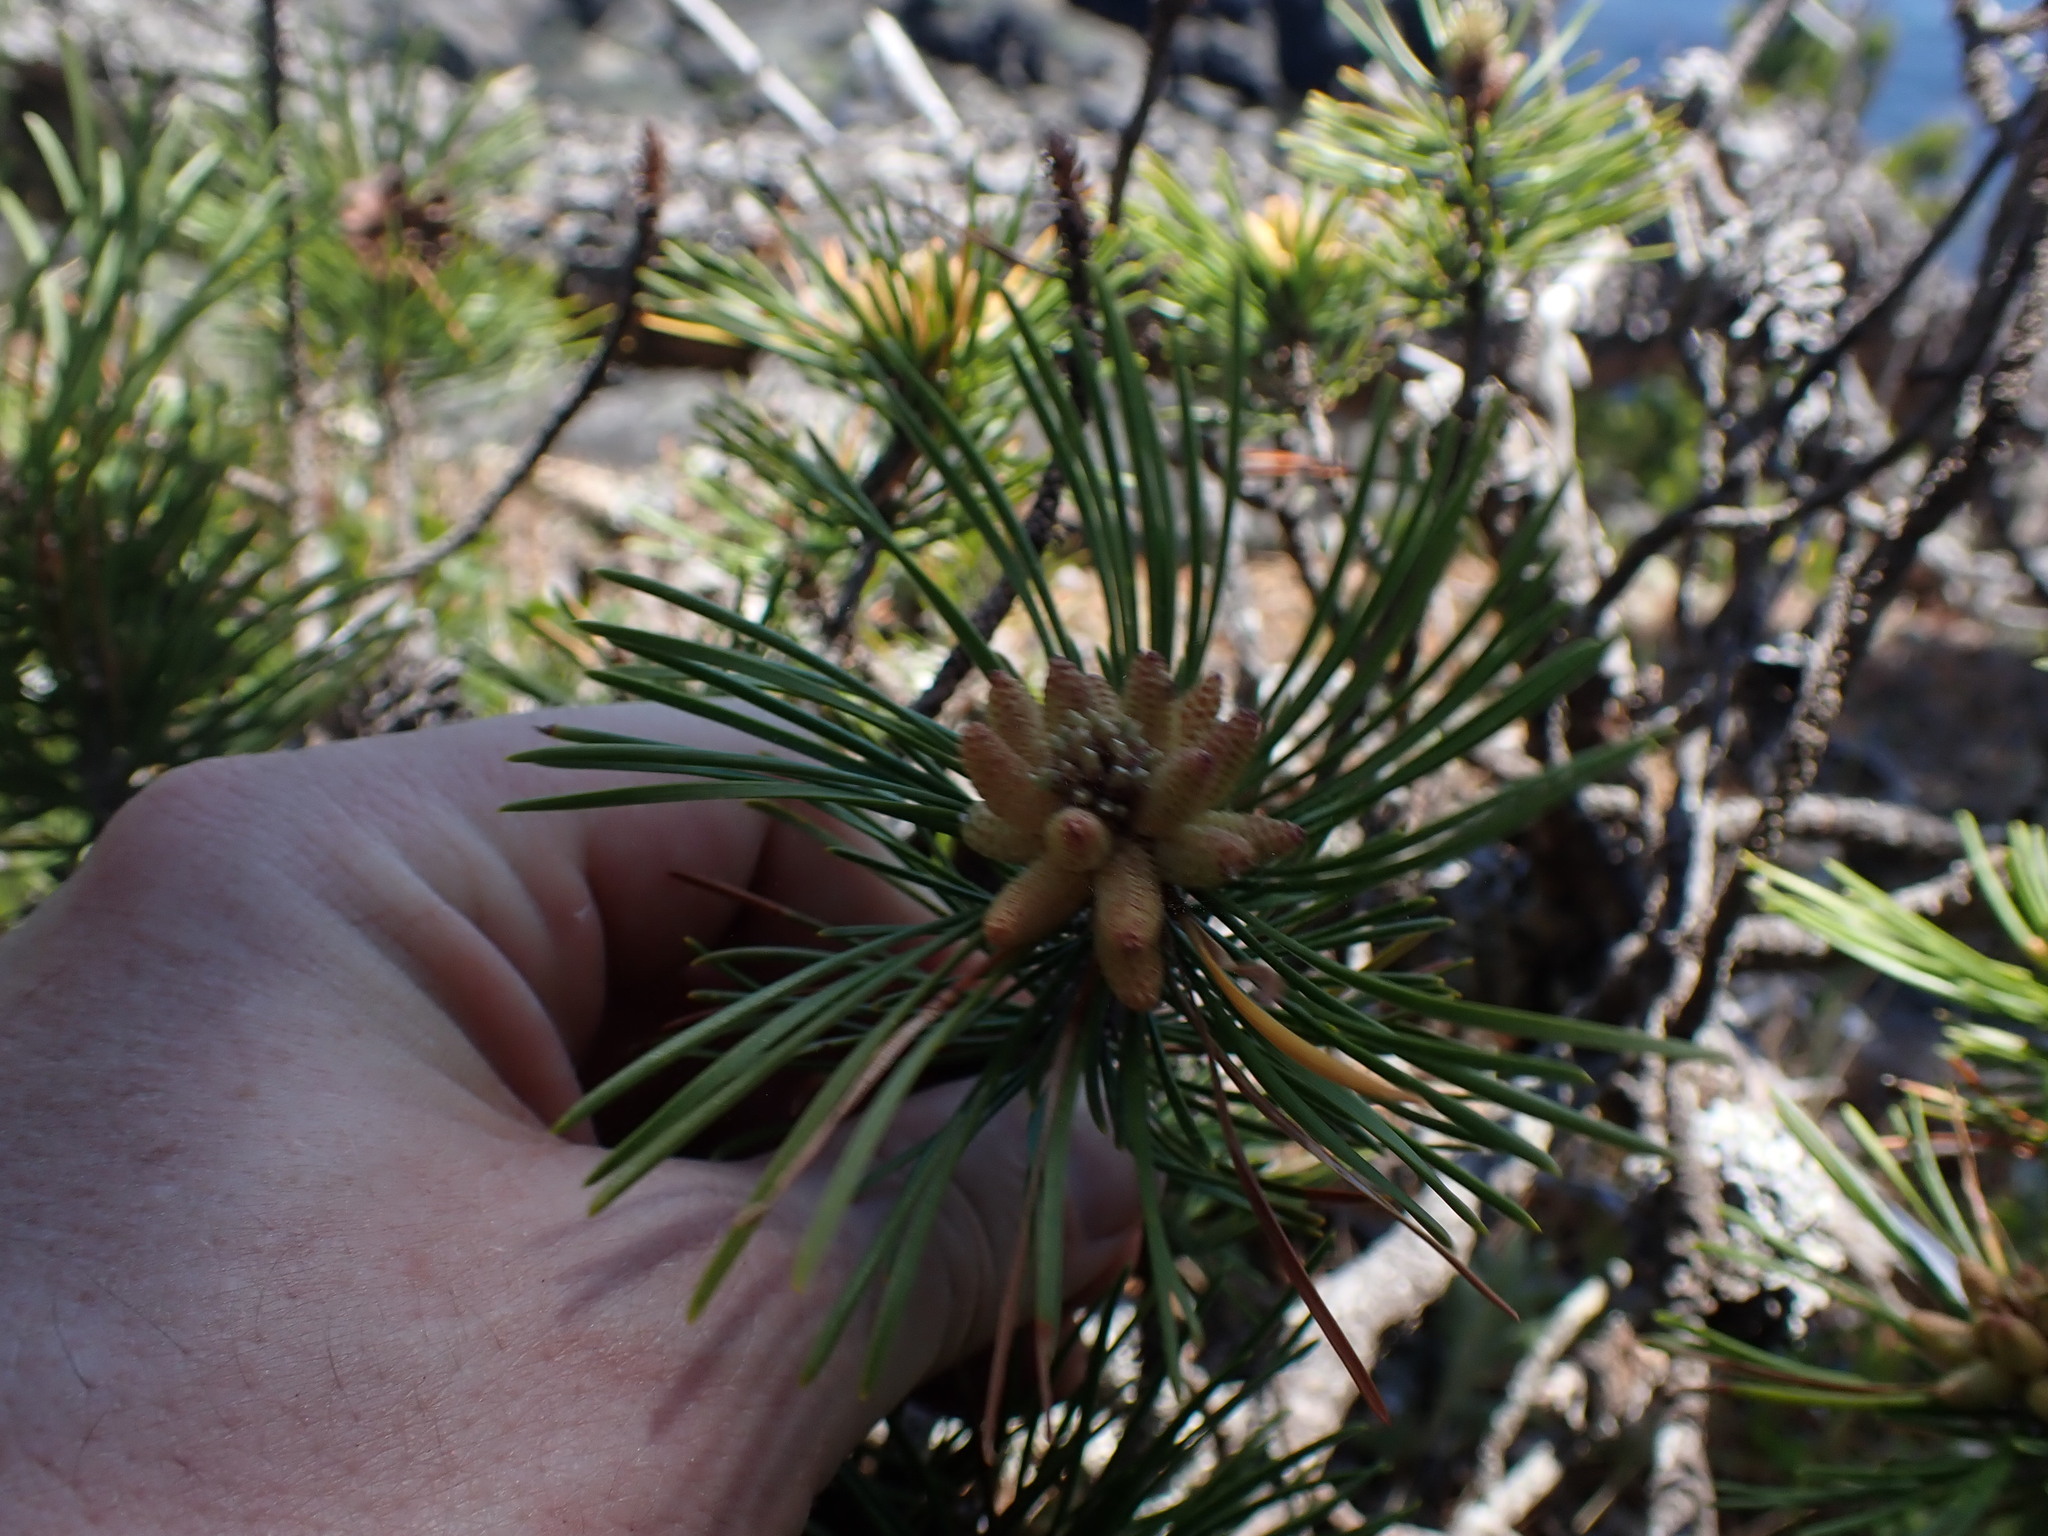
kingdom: Plantae
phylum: Tracheophyta
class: Pinopsida
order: Pinales
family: Pinaceae
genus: Pinus
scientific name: Pinus contorta
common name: Lodgepole pine
